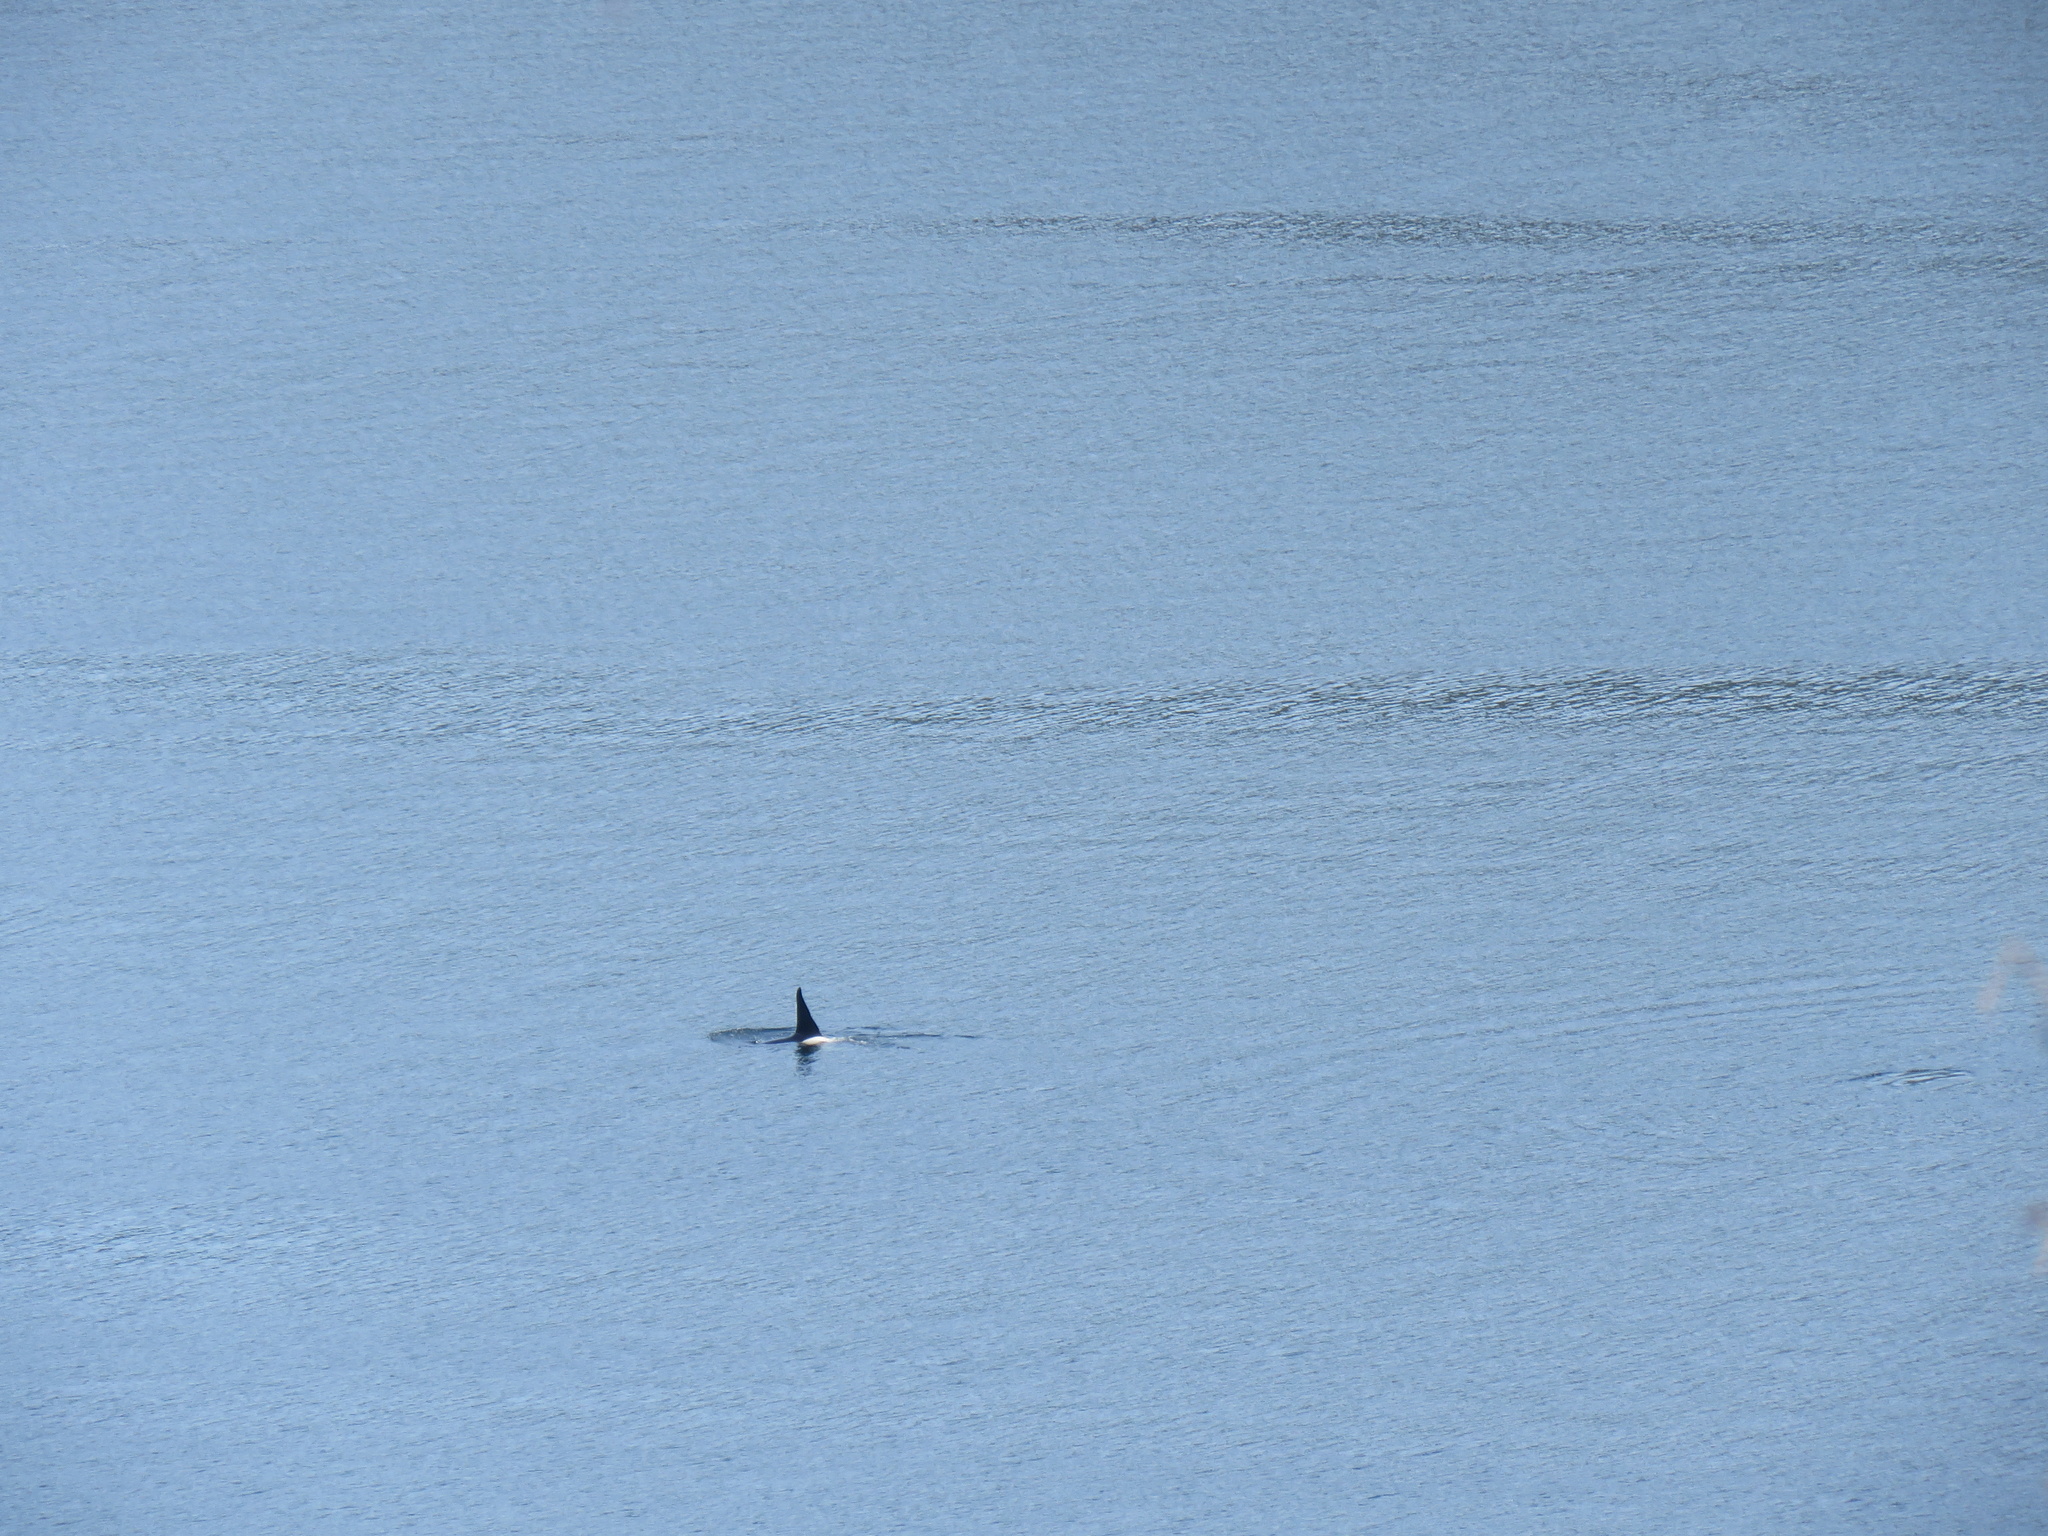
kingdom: Animalia
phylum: Chordata
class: Mammalia
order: Cetacea
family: Delphinidae
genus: Orcinus
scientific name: Orcinus orca
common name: Killer whale
